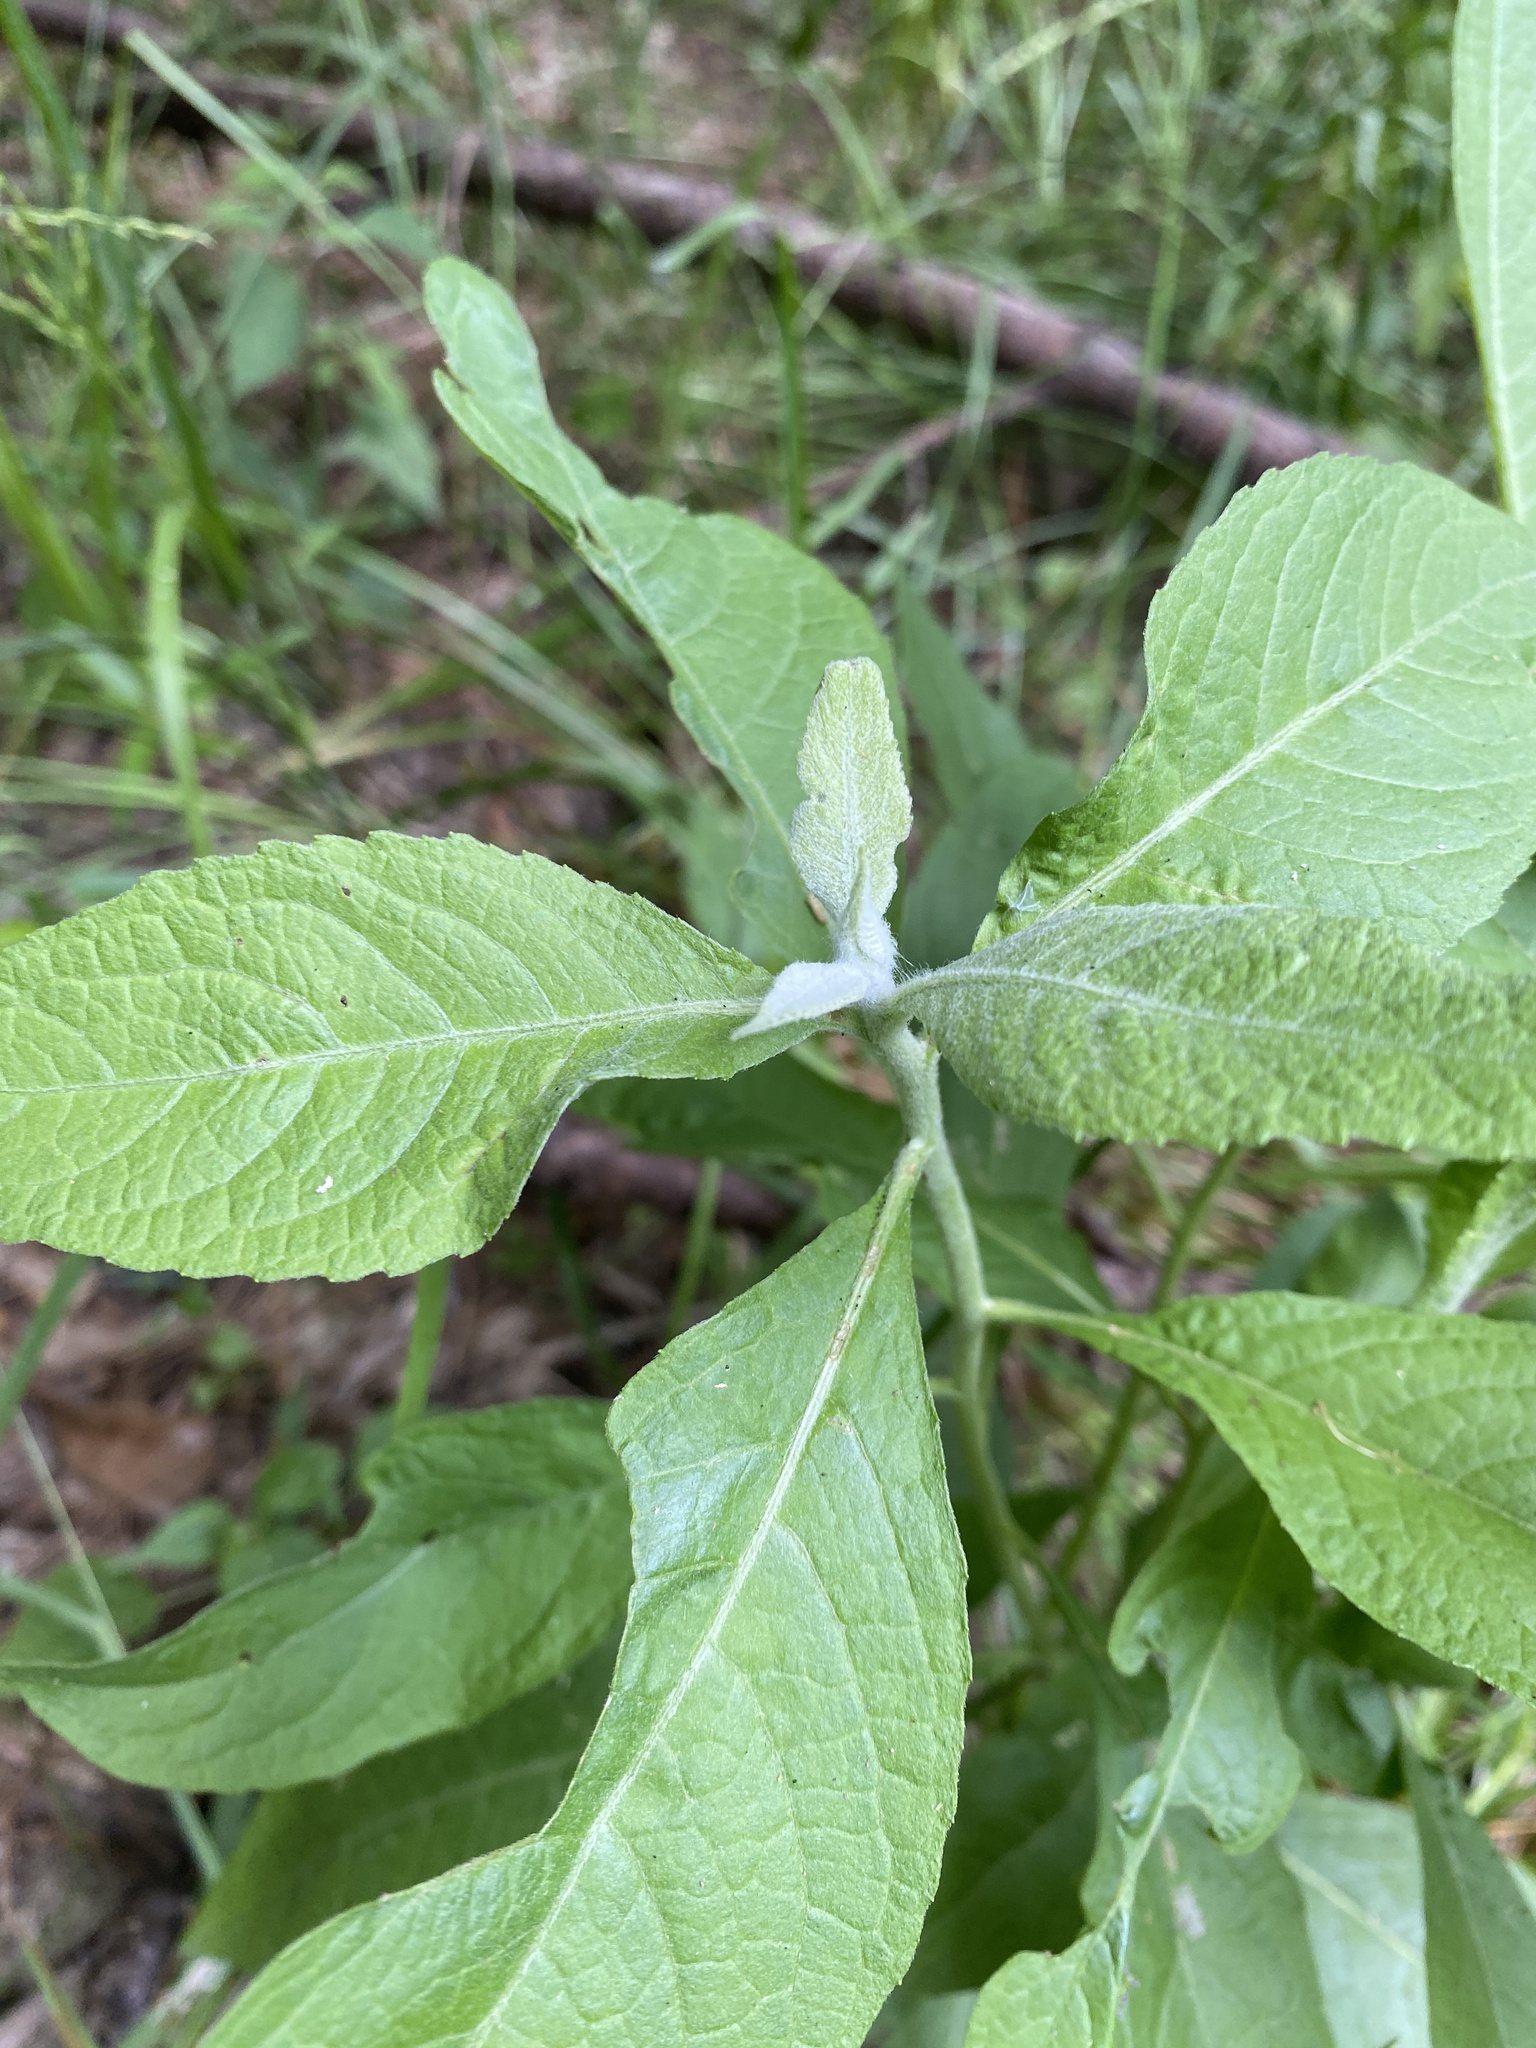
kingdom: Plantae
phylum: Tracheophyta
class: Magnoliopsida
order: Asterales
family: Asteraceae
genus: Pluchea
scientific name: Pluchea camphorata
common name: Camphor pluchea
